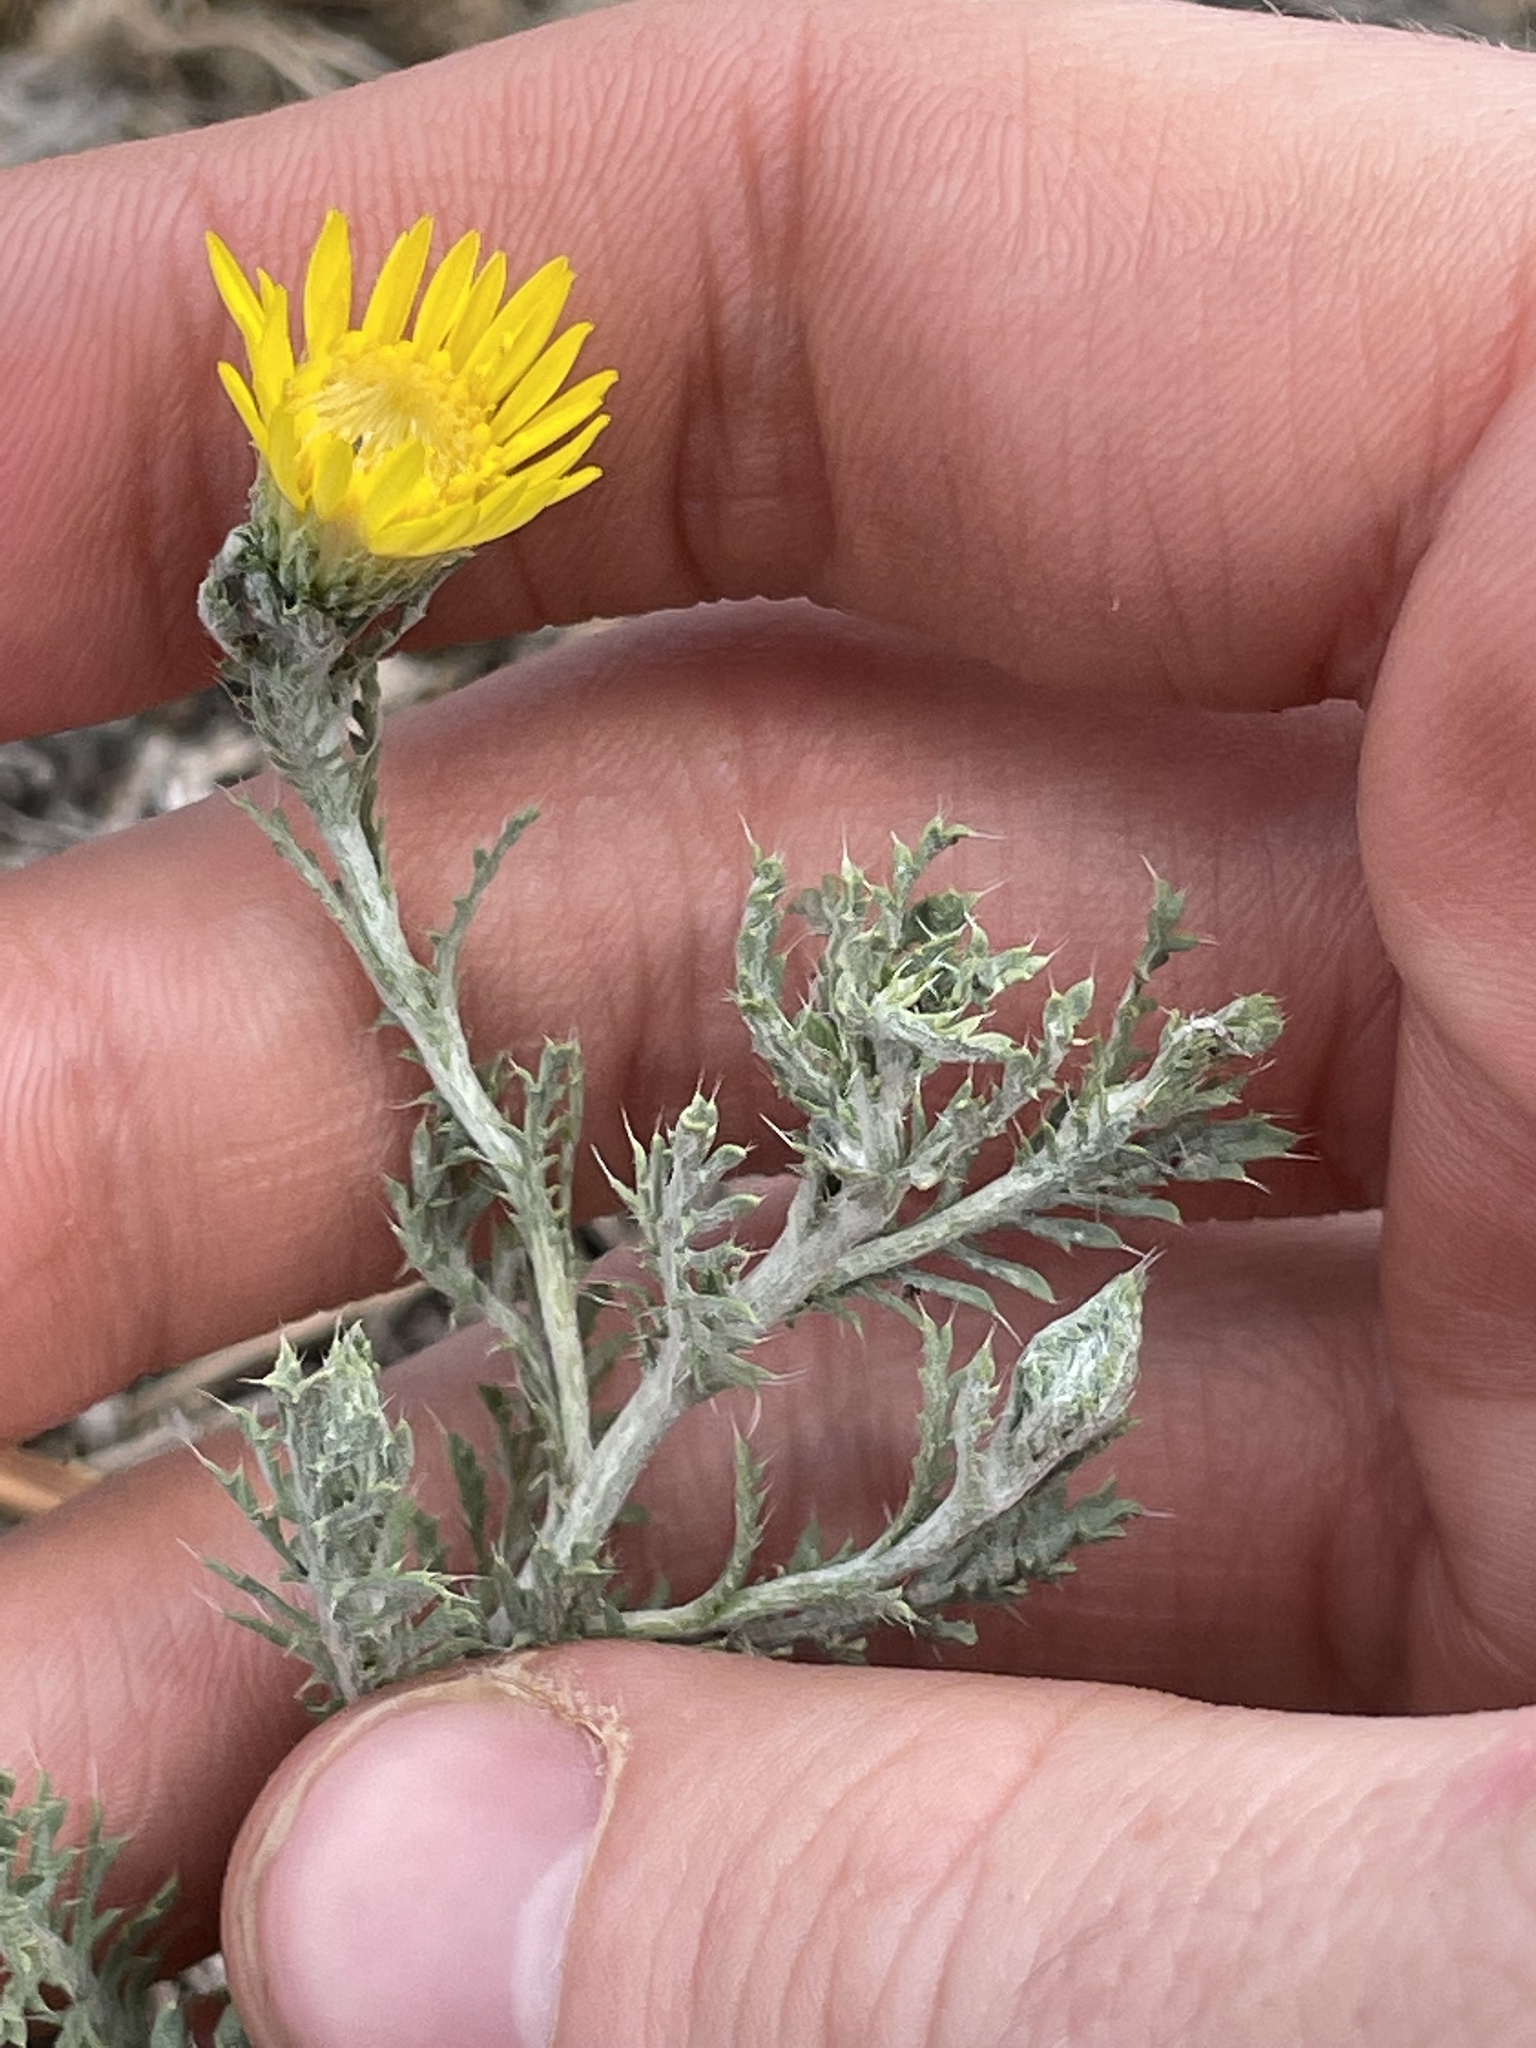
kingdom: Plantae
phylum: Tracheophyta
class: Magnoliopsida
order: Asterales
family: Asteraceae
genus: Xanthisma
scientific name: Xanthisma spinulosum
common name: Spiny goldenweed
